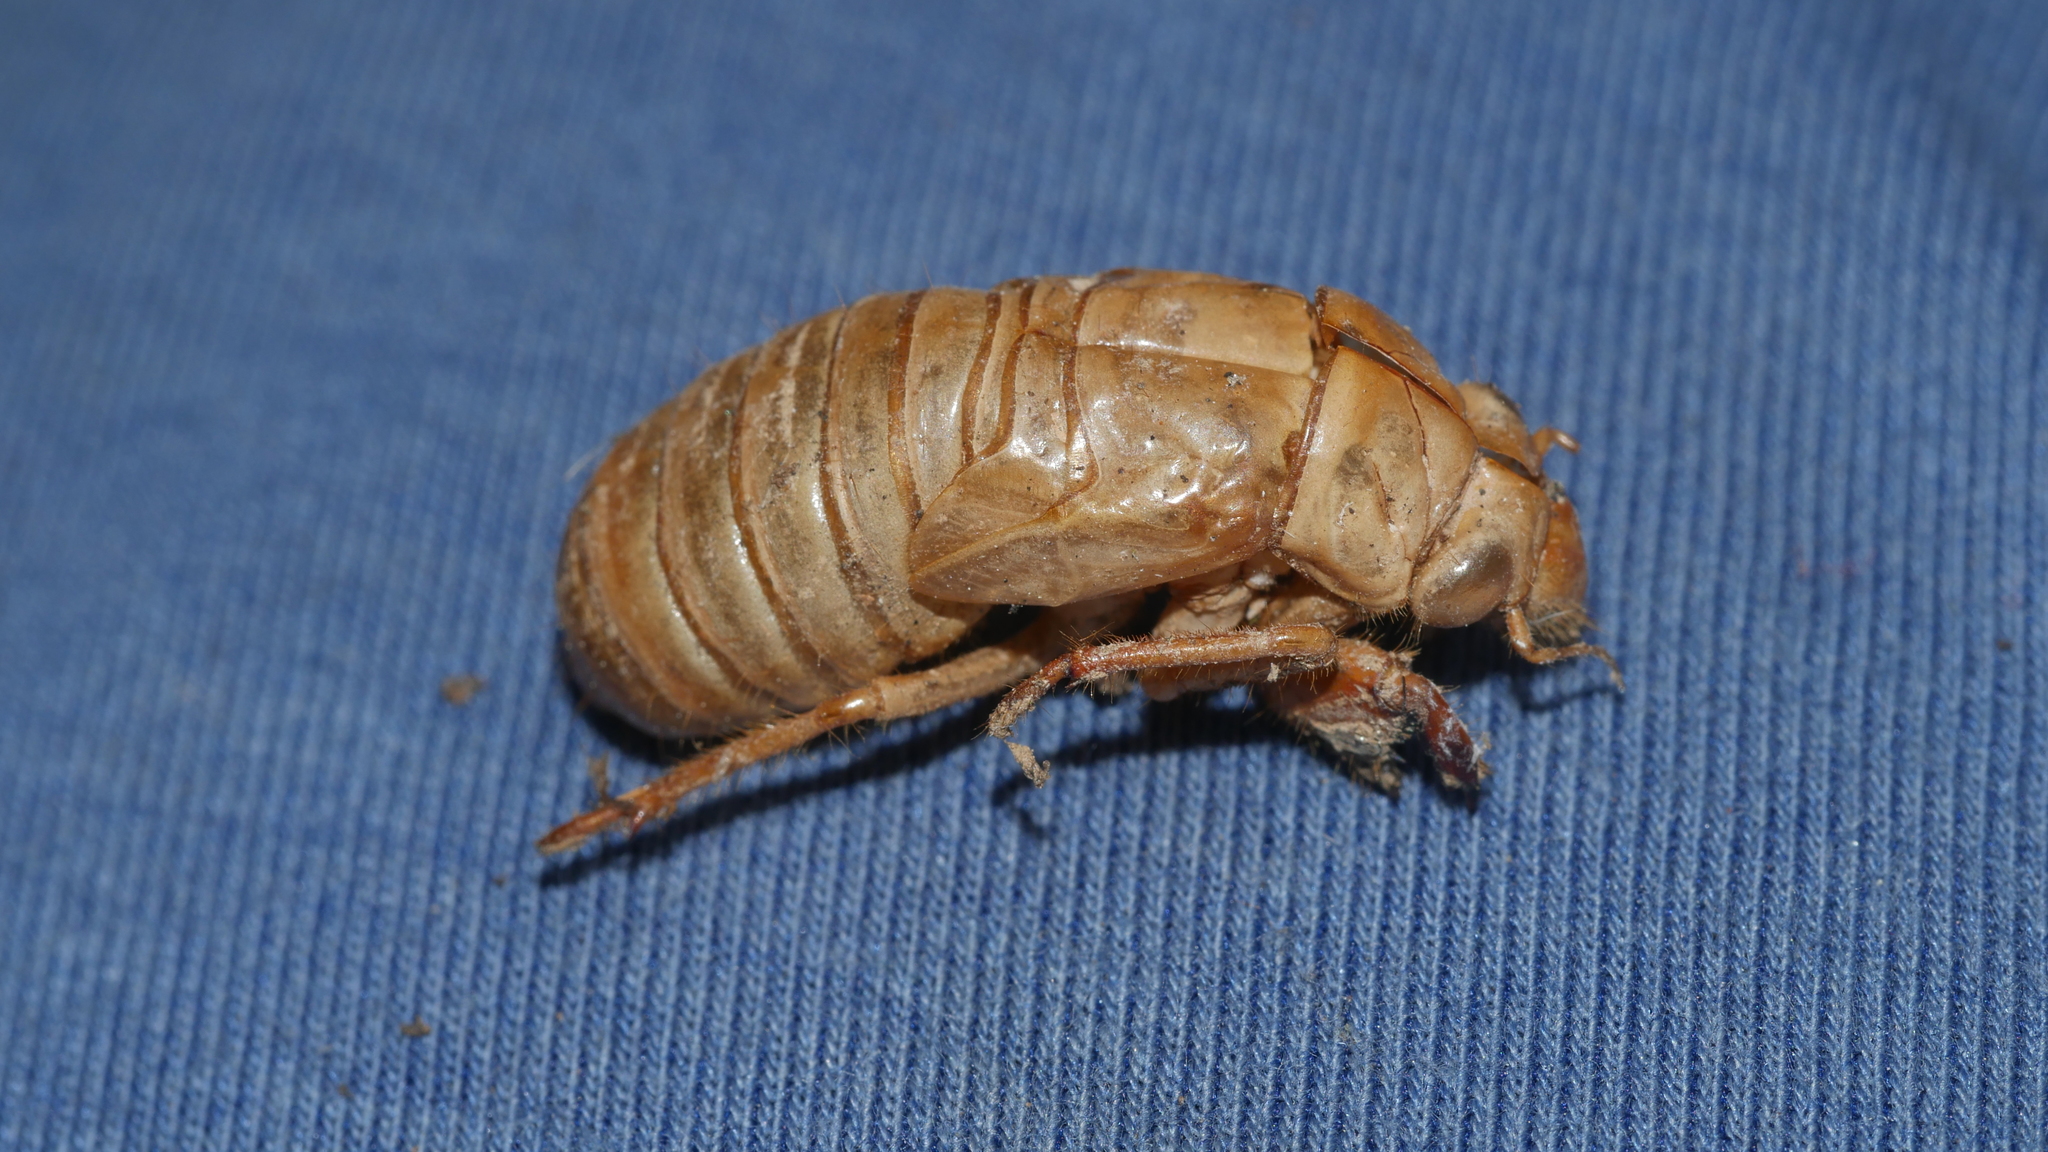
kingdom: Animalia
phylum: Arthropoda
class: Insecta
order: Hemiptera
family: Cicadidae
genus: Magicicada
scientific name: Magicicada
